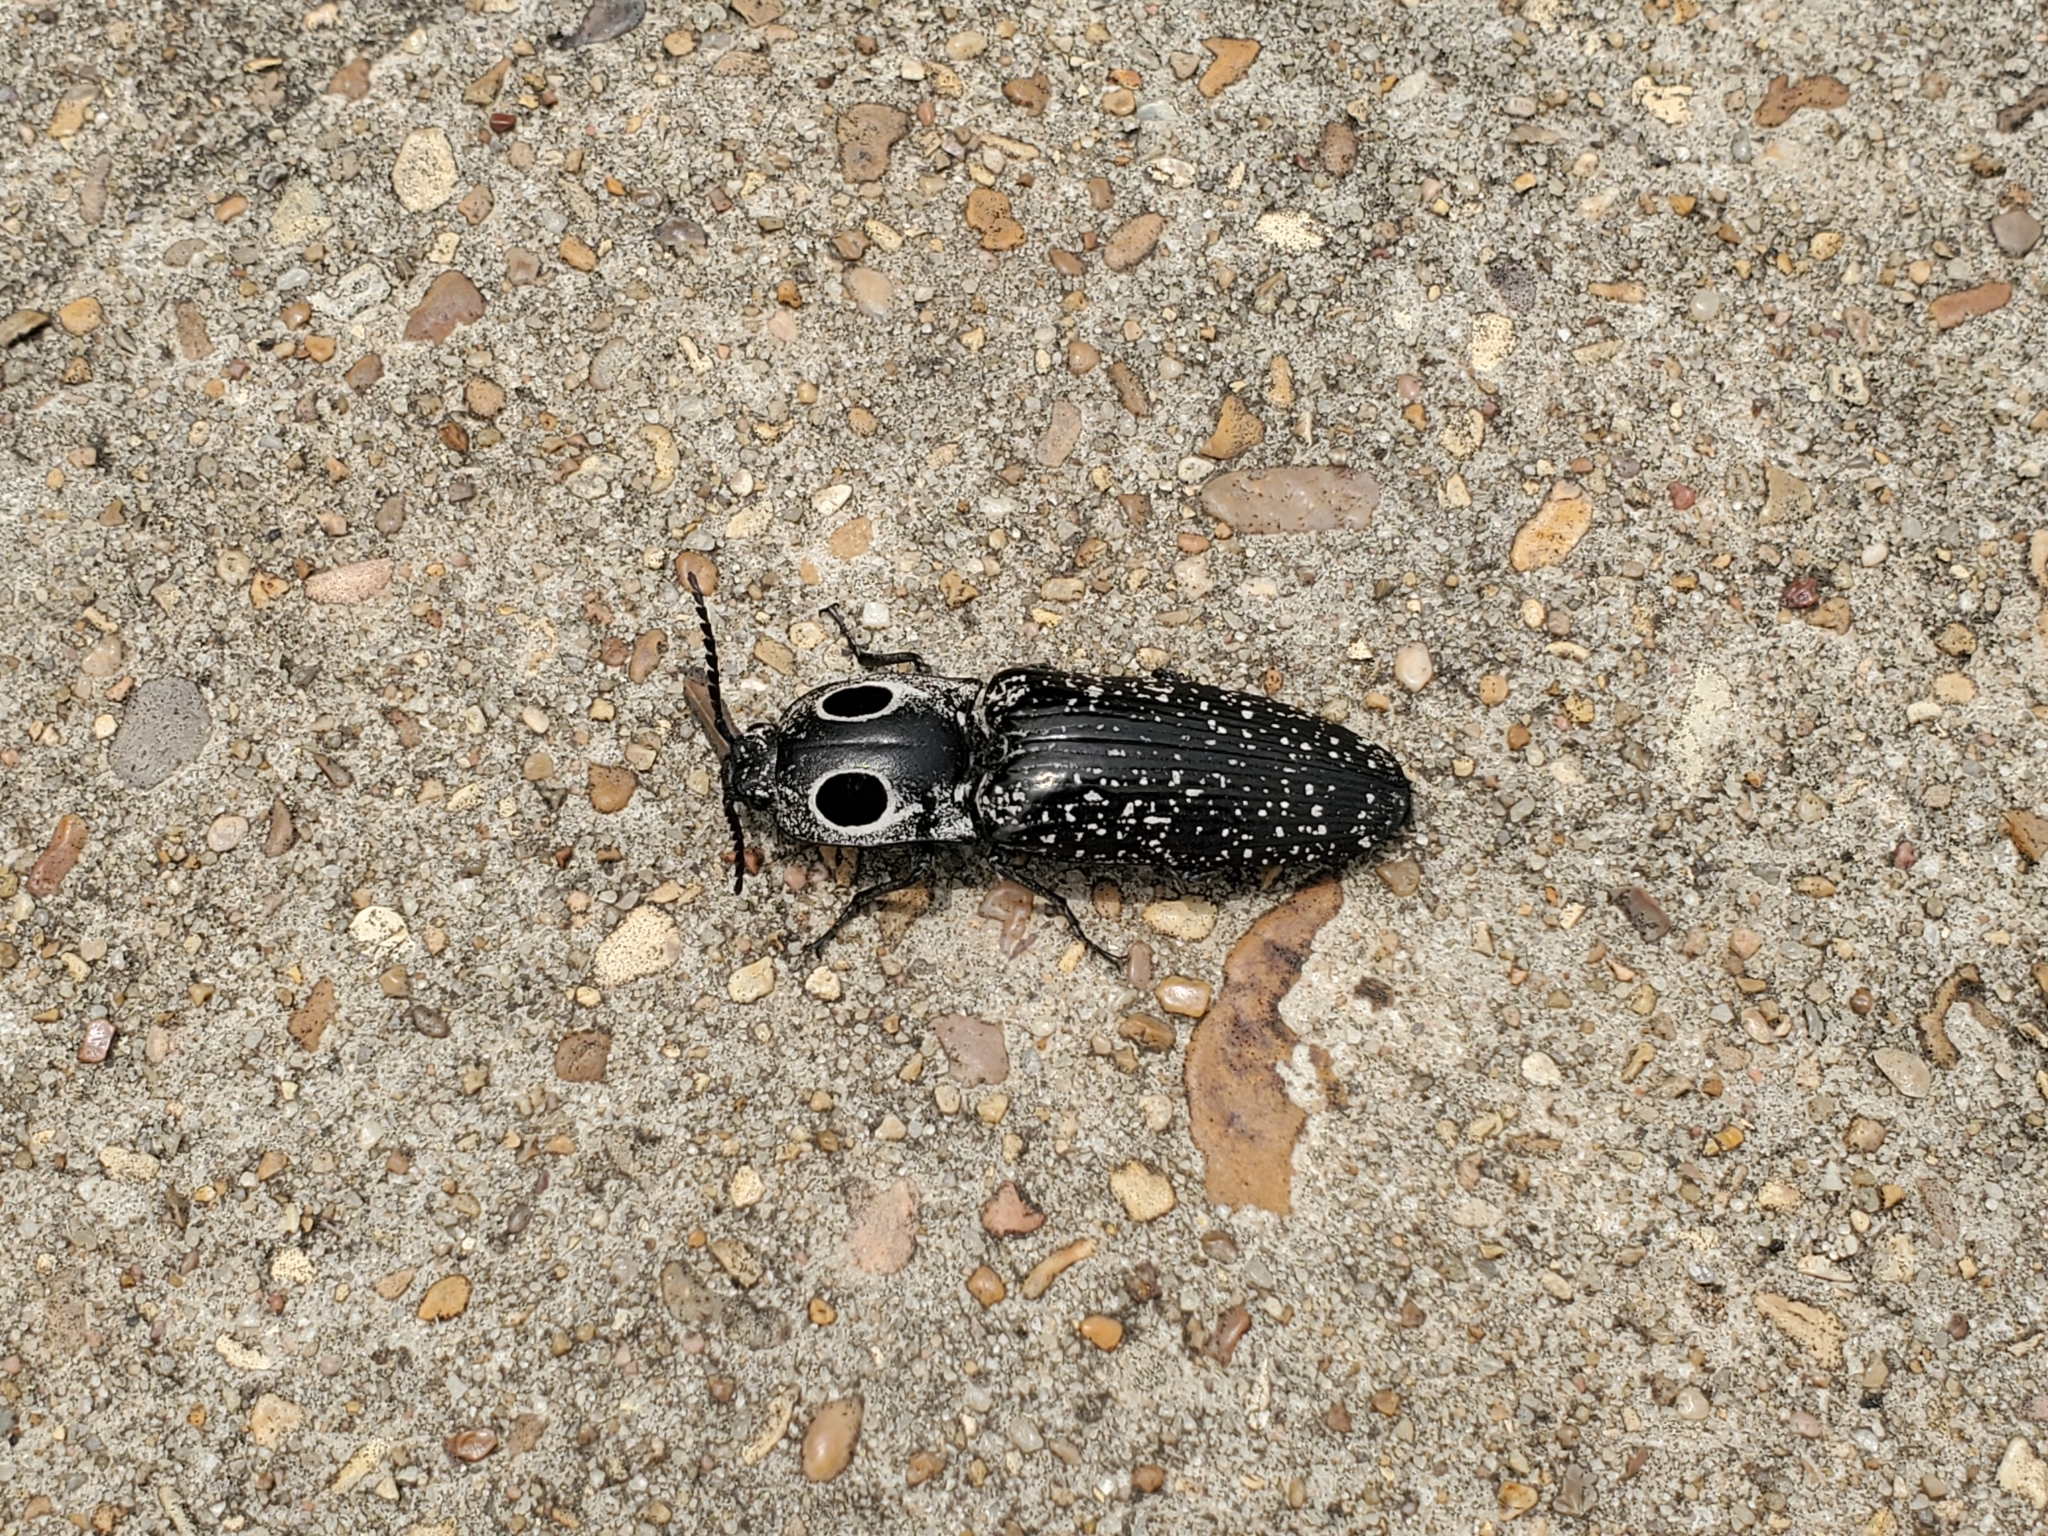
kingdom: Animalia
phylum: Arthropoda
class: Insecta
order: Coleoptera
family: Elateridae
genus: Alaus
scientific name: Alaus oculatus
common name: Eastern eyed click beetle
